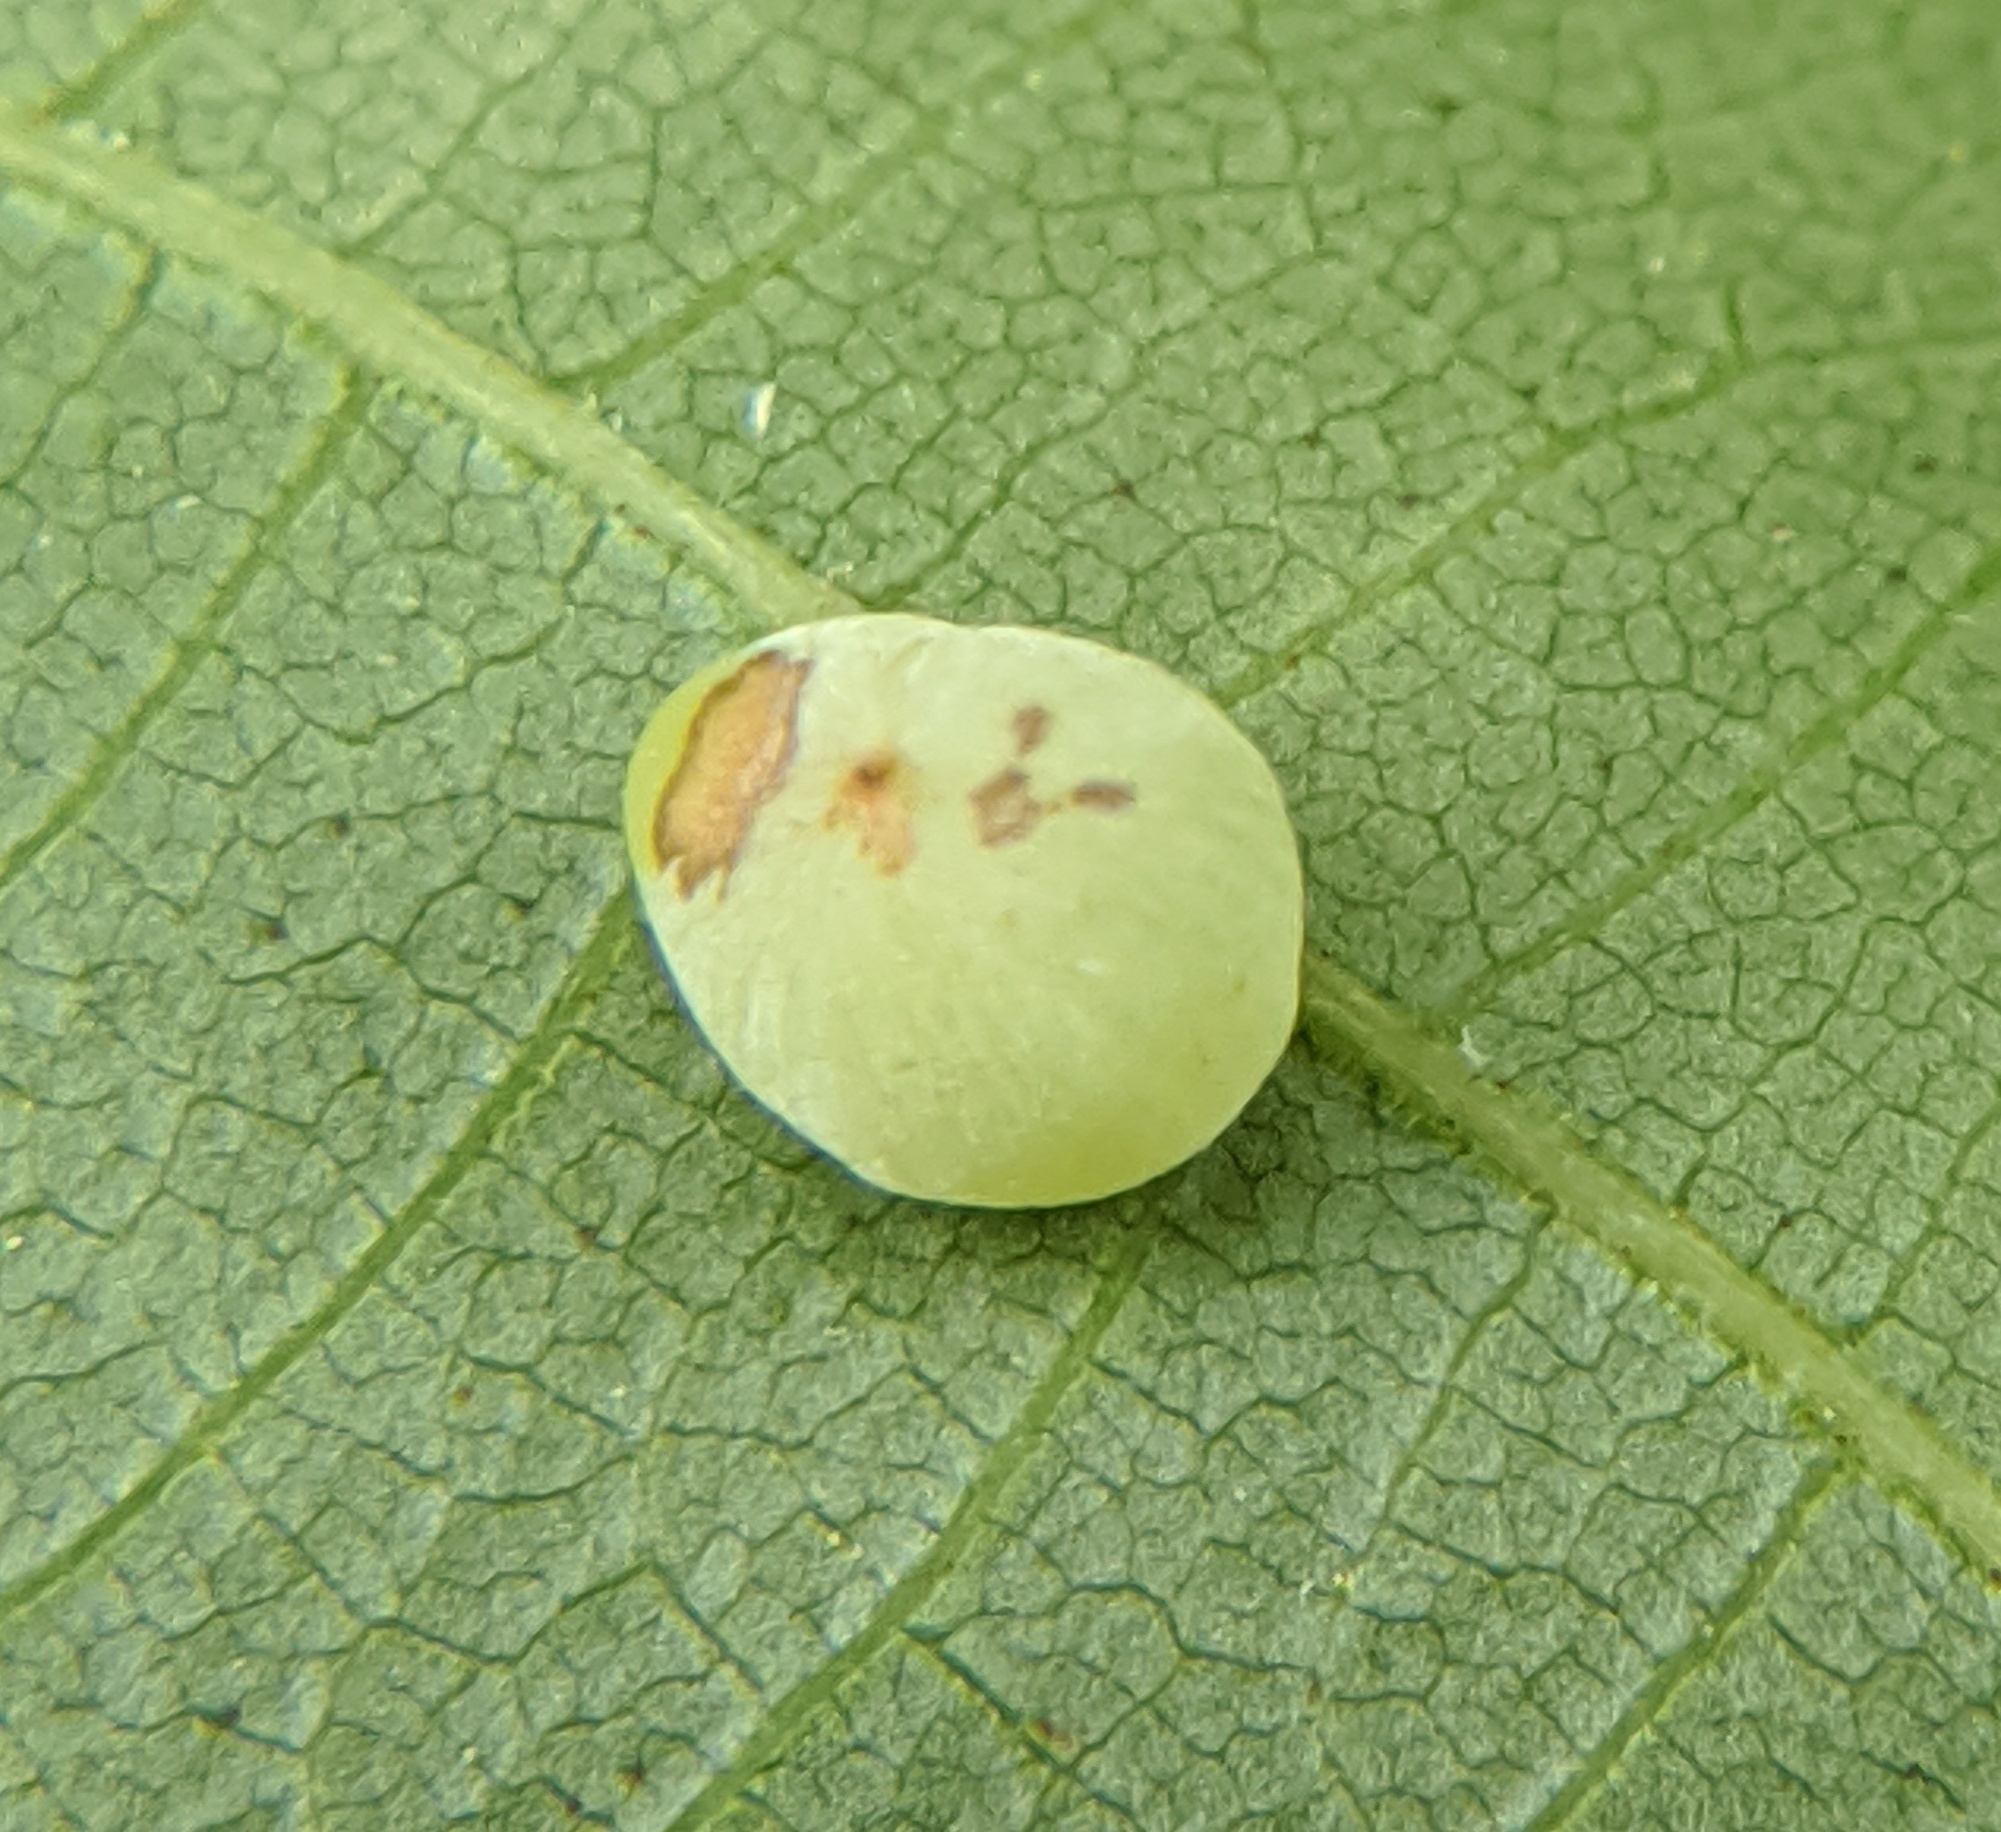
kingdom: Animalia
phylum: Arthropoda
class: Insecta
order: Diptera
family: Cecidomyiidae
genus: Caryomyia
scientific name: Caryomyia glauciglobus
